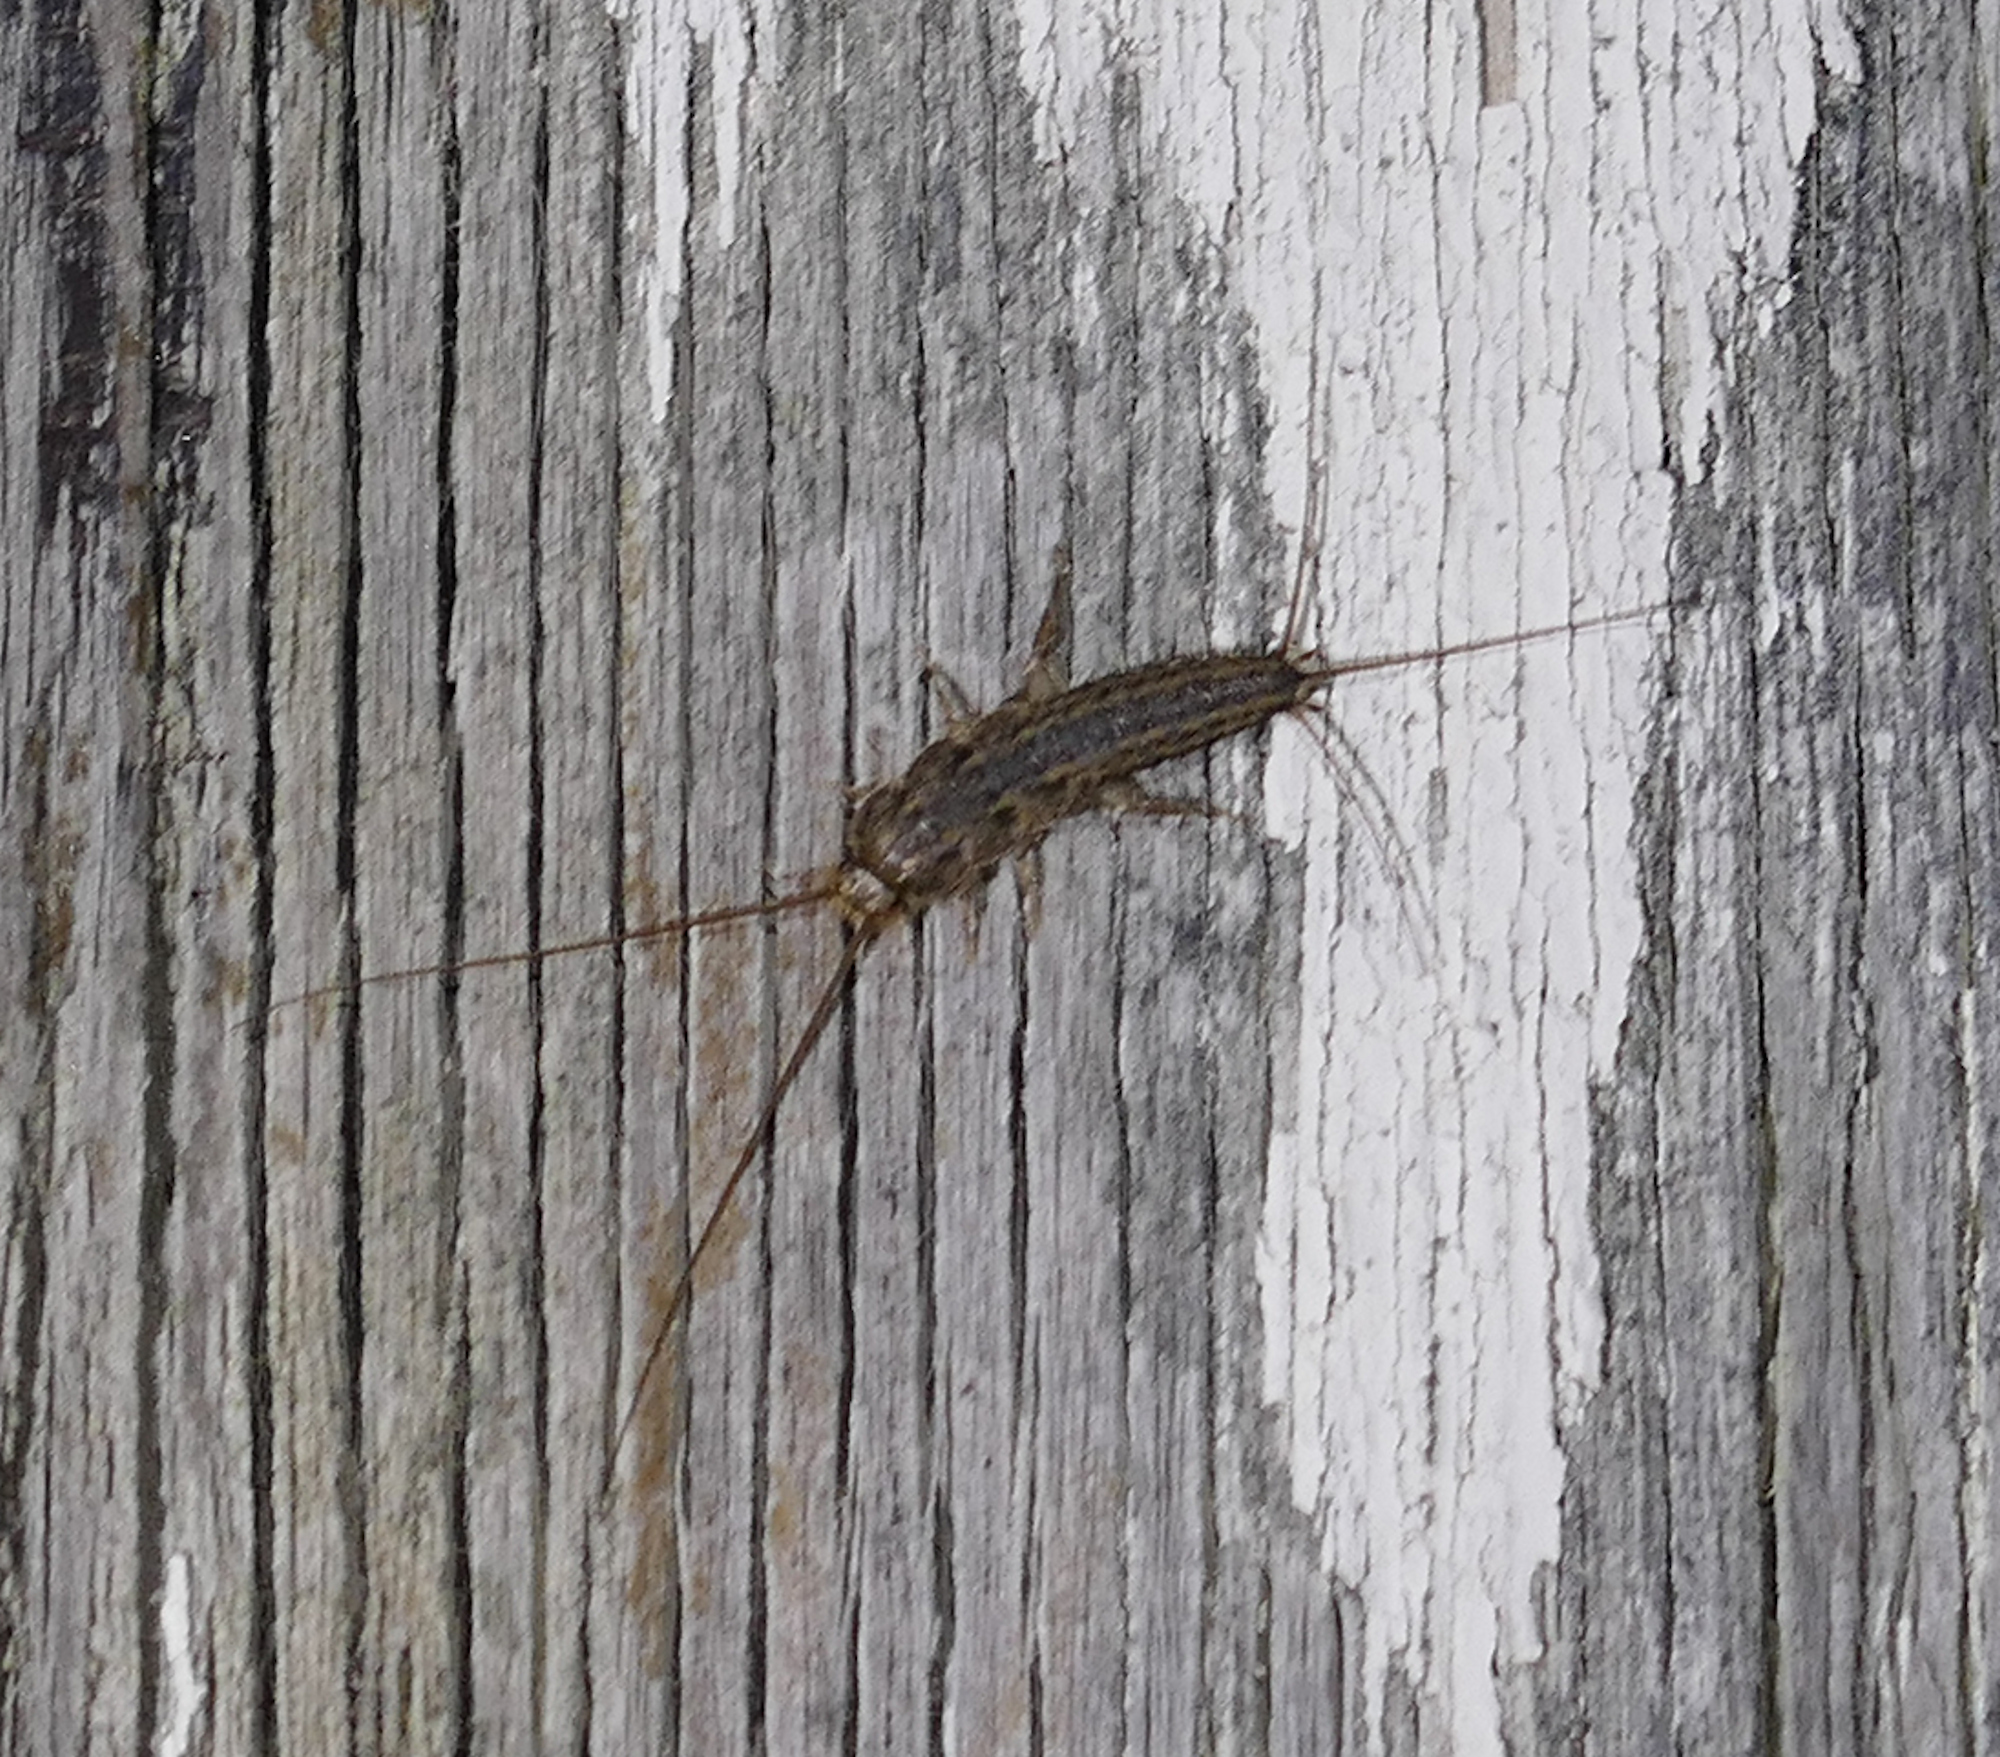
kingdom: Animalia
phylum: Arthropoda
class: Insecta
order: Zygentoma
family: Lepismatidae
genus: Ctenolepisma
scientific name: Ctenolepisma lineata
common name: Four-lined silverfish
